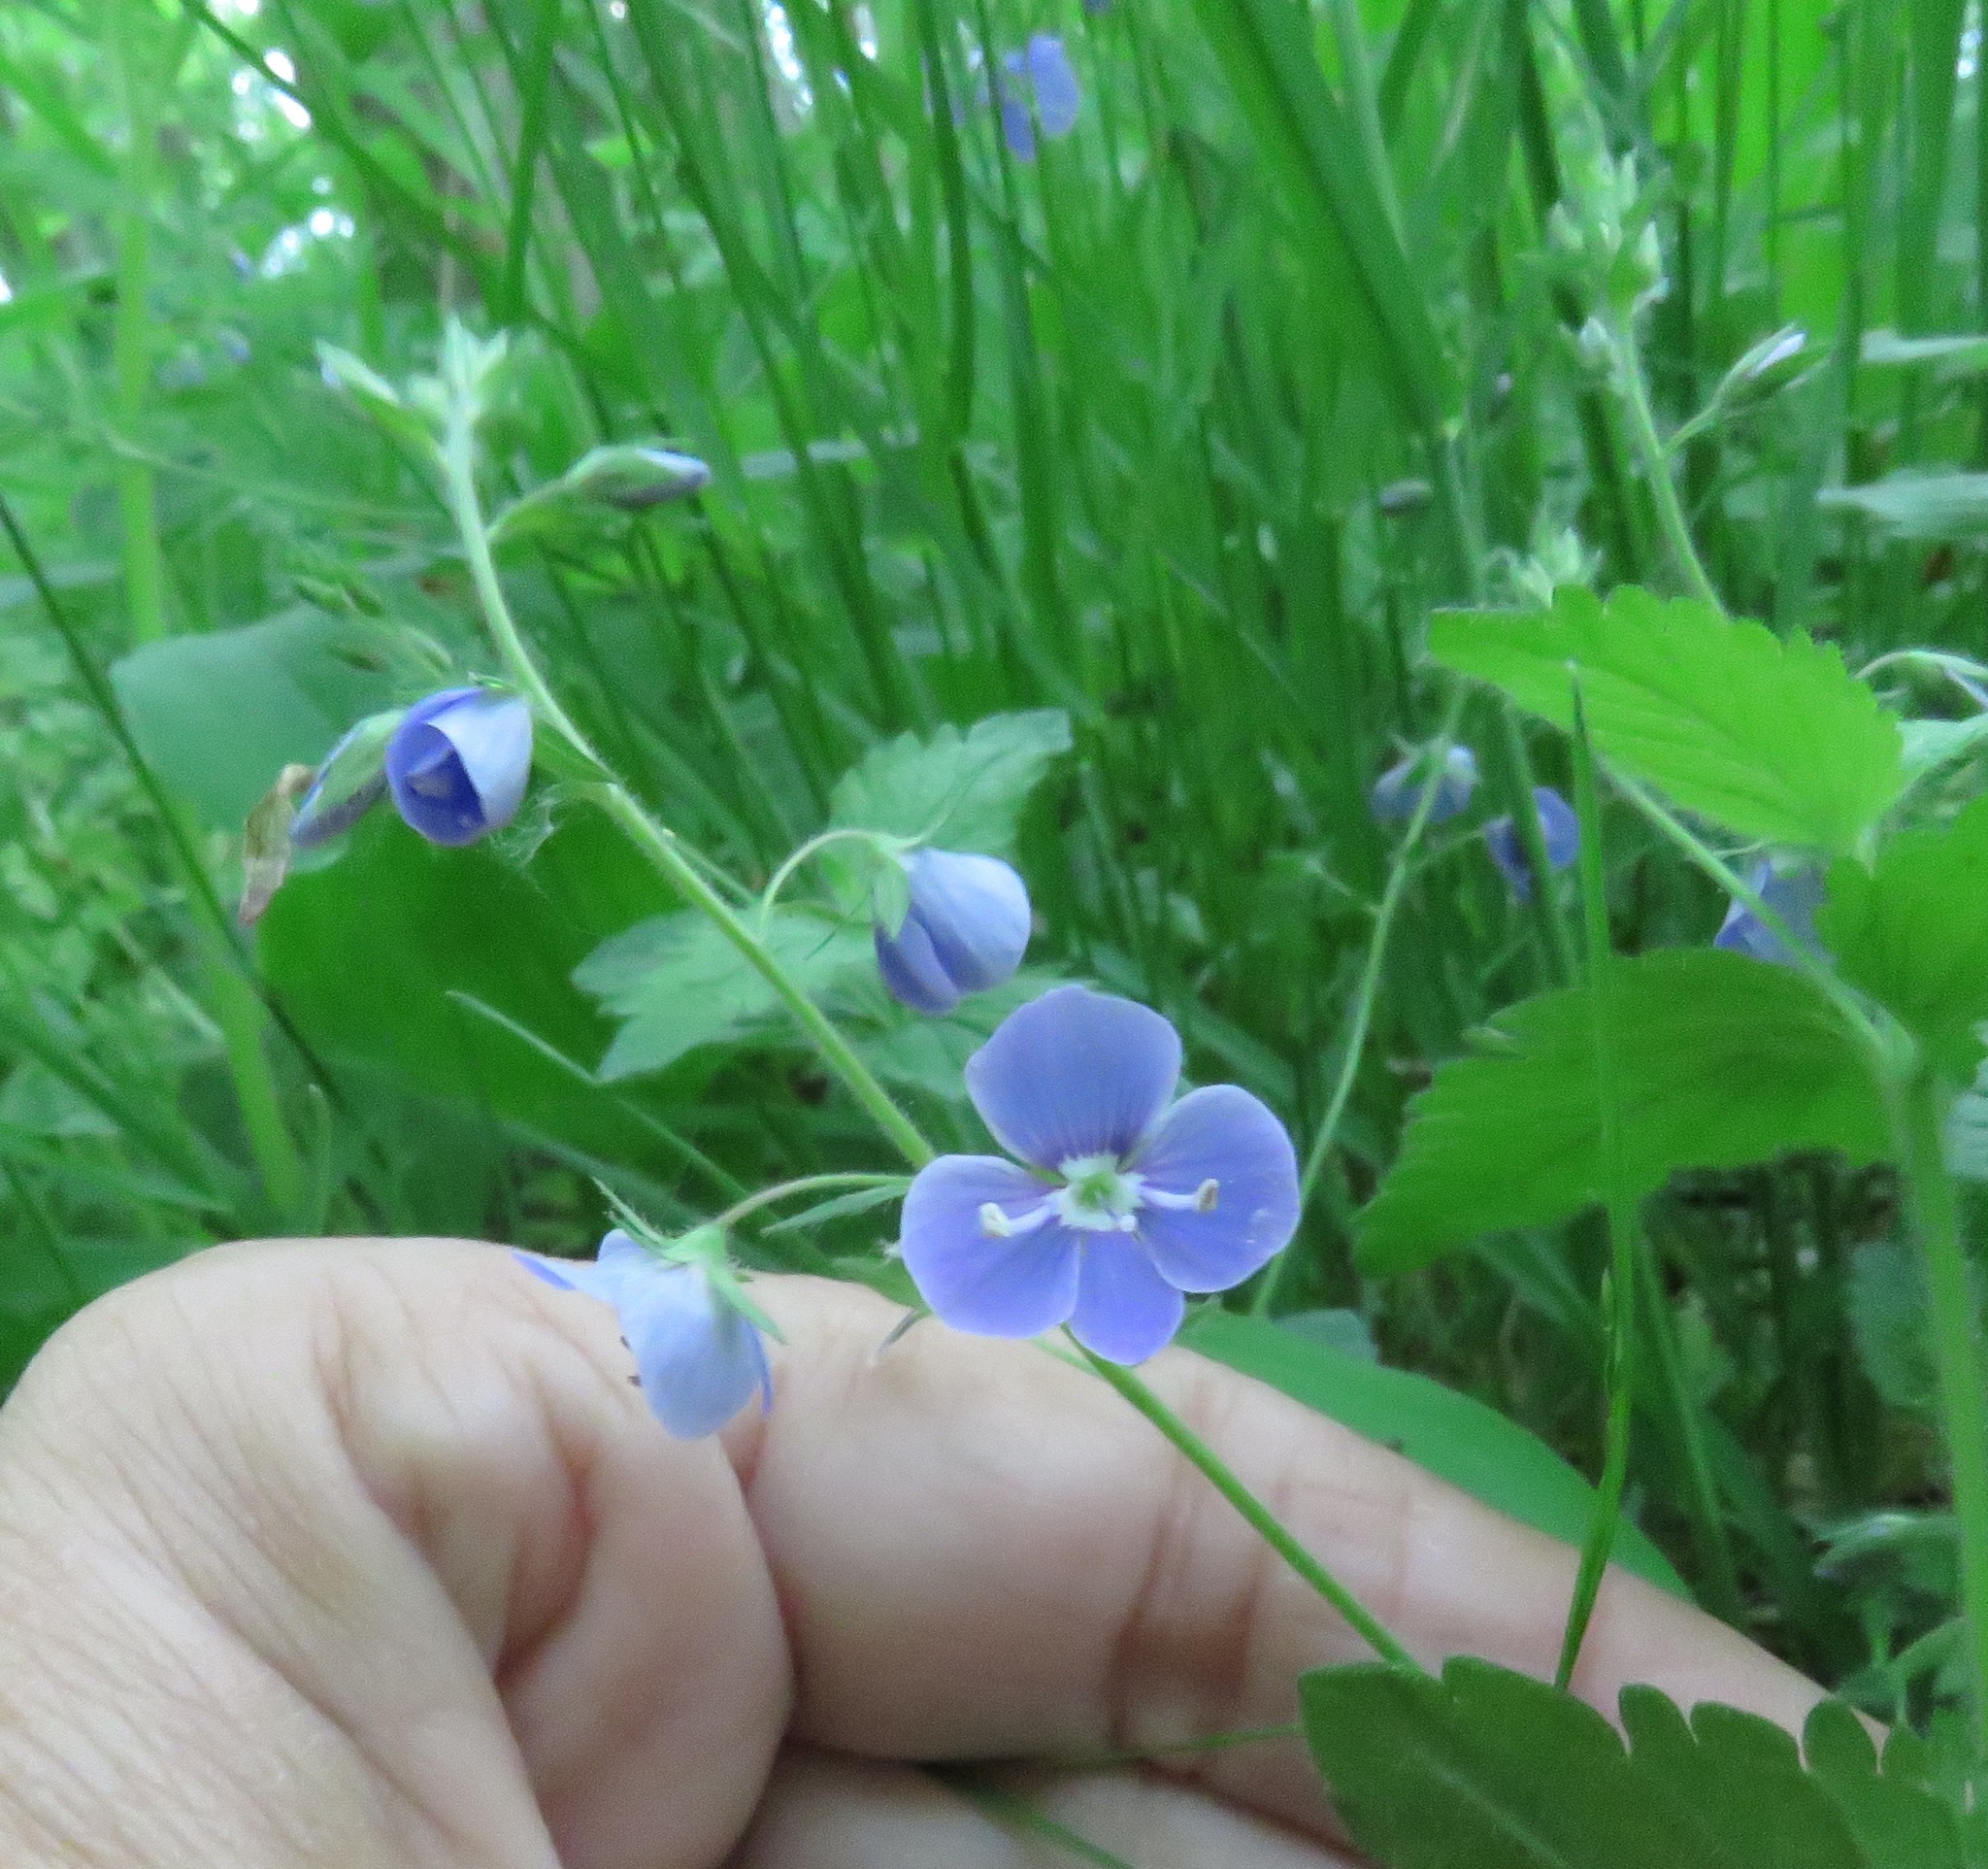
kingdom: Plantae
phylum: Tracheophyta
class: Magnoliopsida
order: Lamiales
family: Plantaginaceae
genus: Veronica
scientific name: Veronica chamaedrys
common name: Germander speedwell
